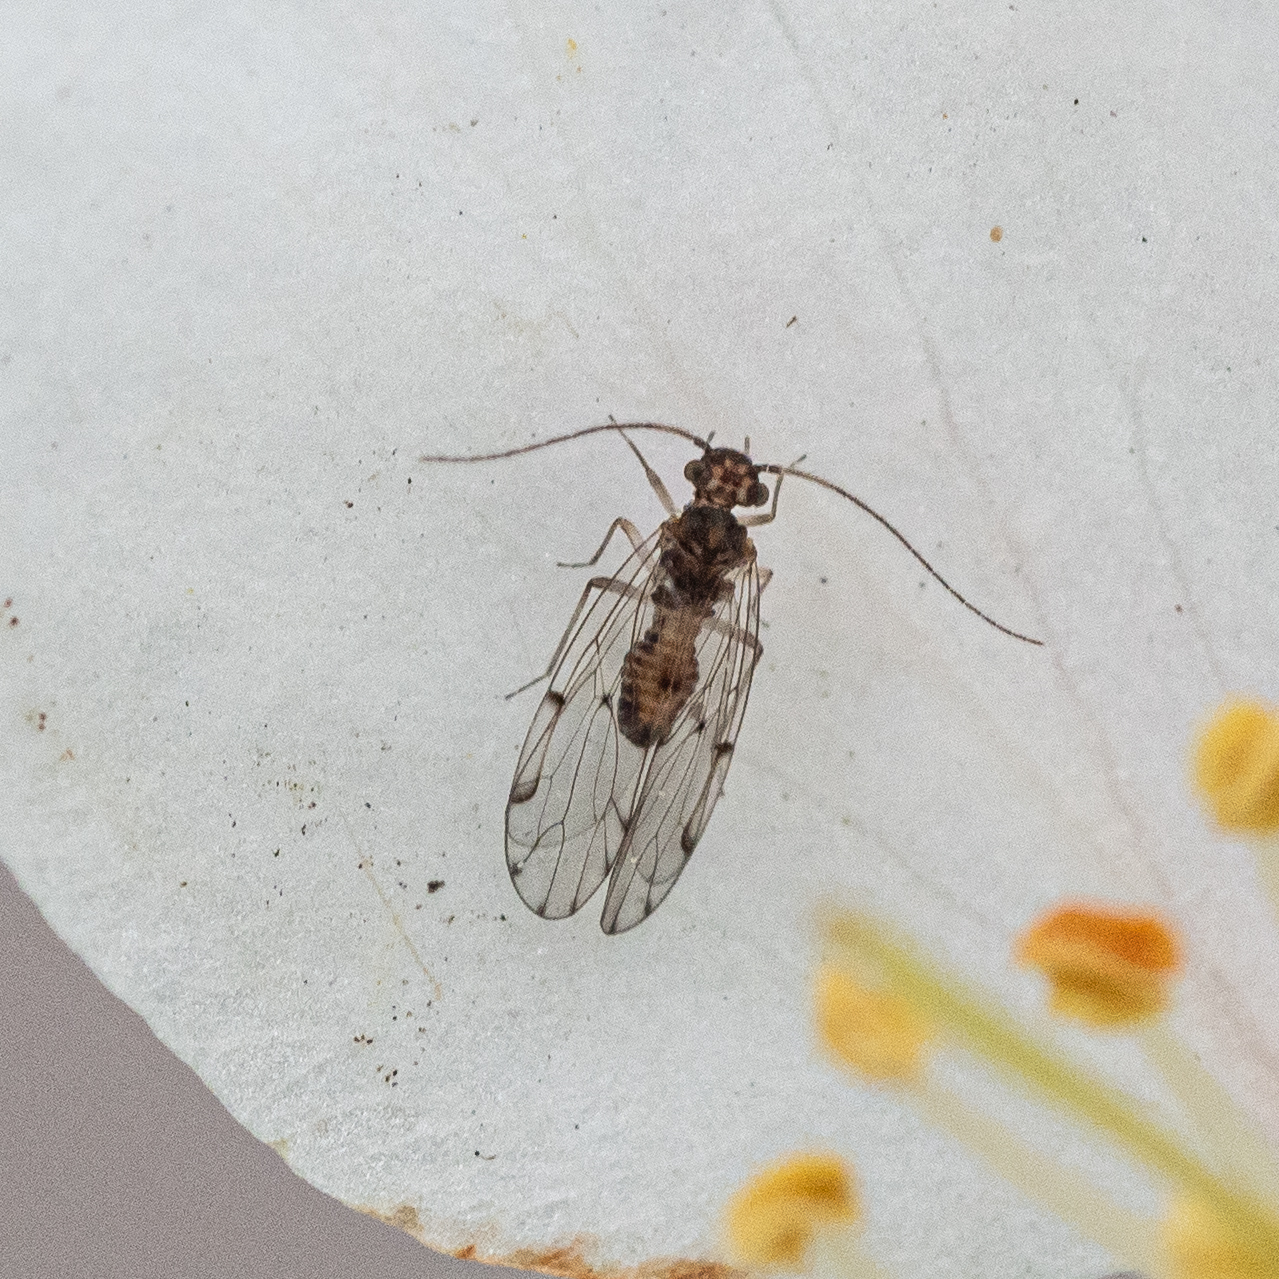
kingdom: Animalia
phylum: Arthropoda
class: Insecta
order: Psocodea
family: Ectopsocidae
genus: Ectopsocus
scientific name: Ectopsocus petersi
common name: Medium-sized bark louse
